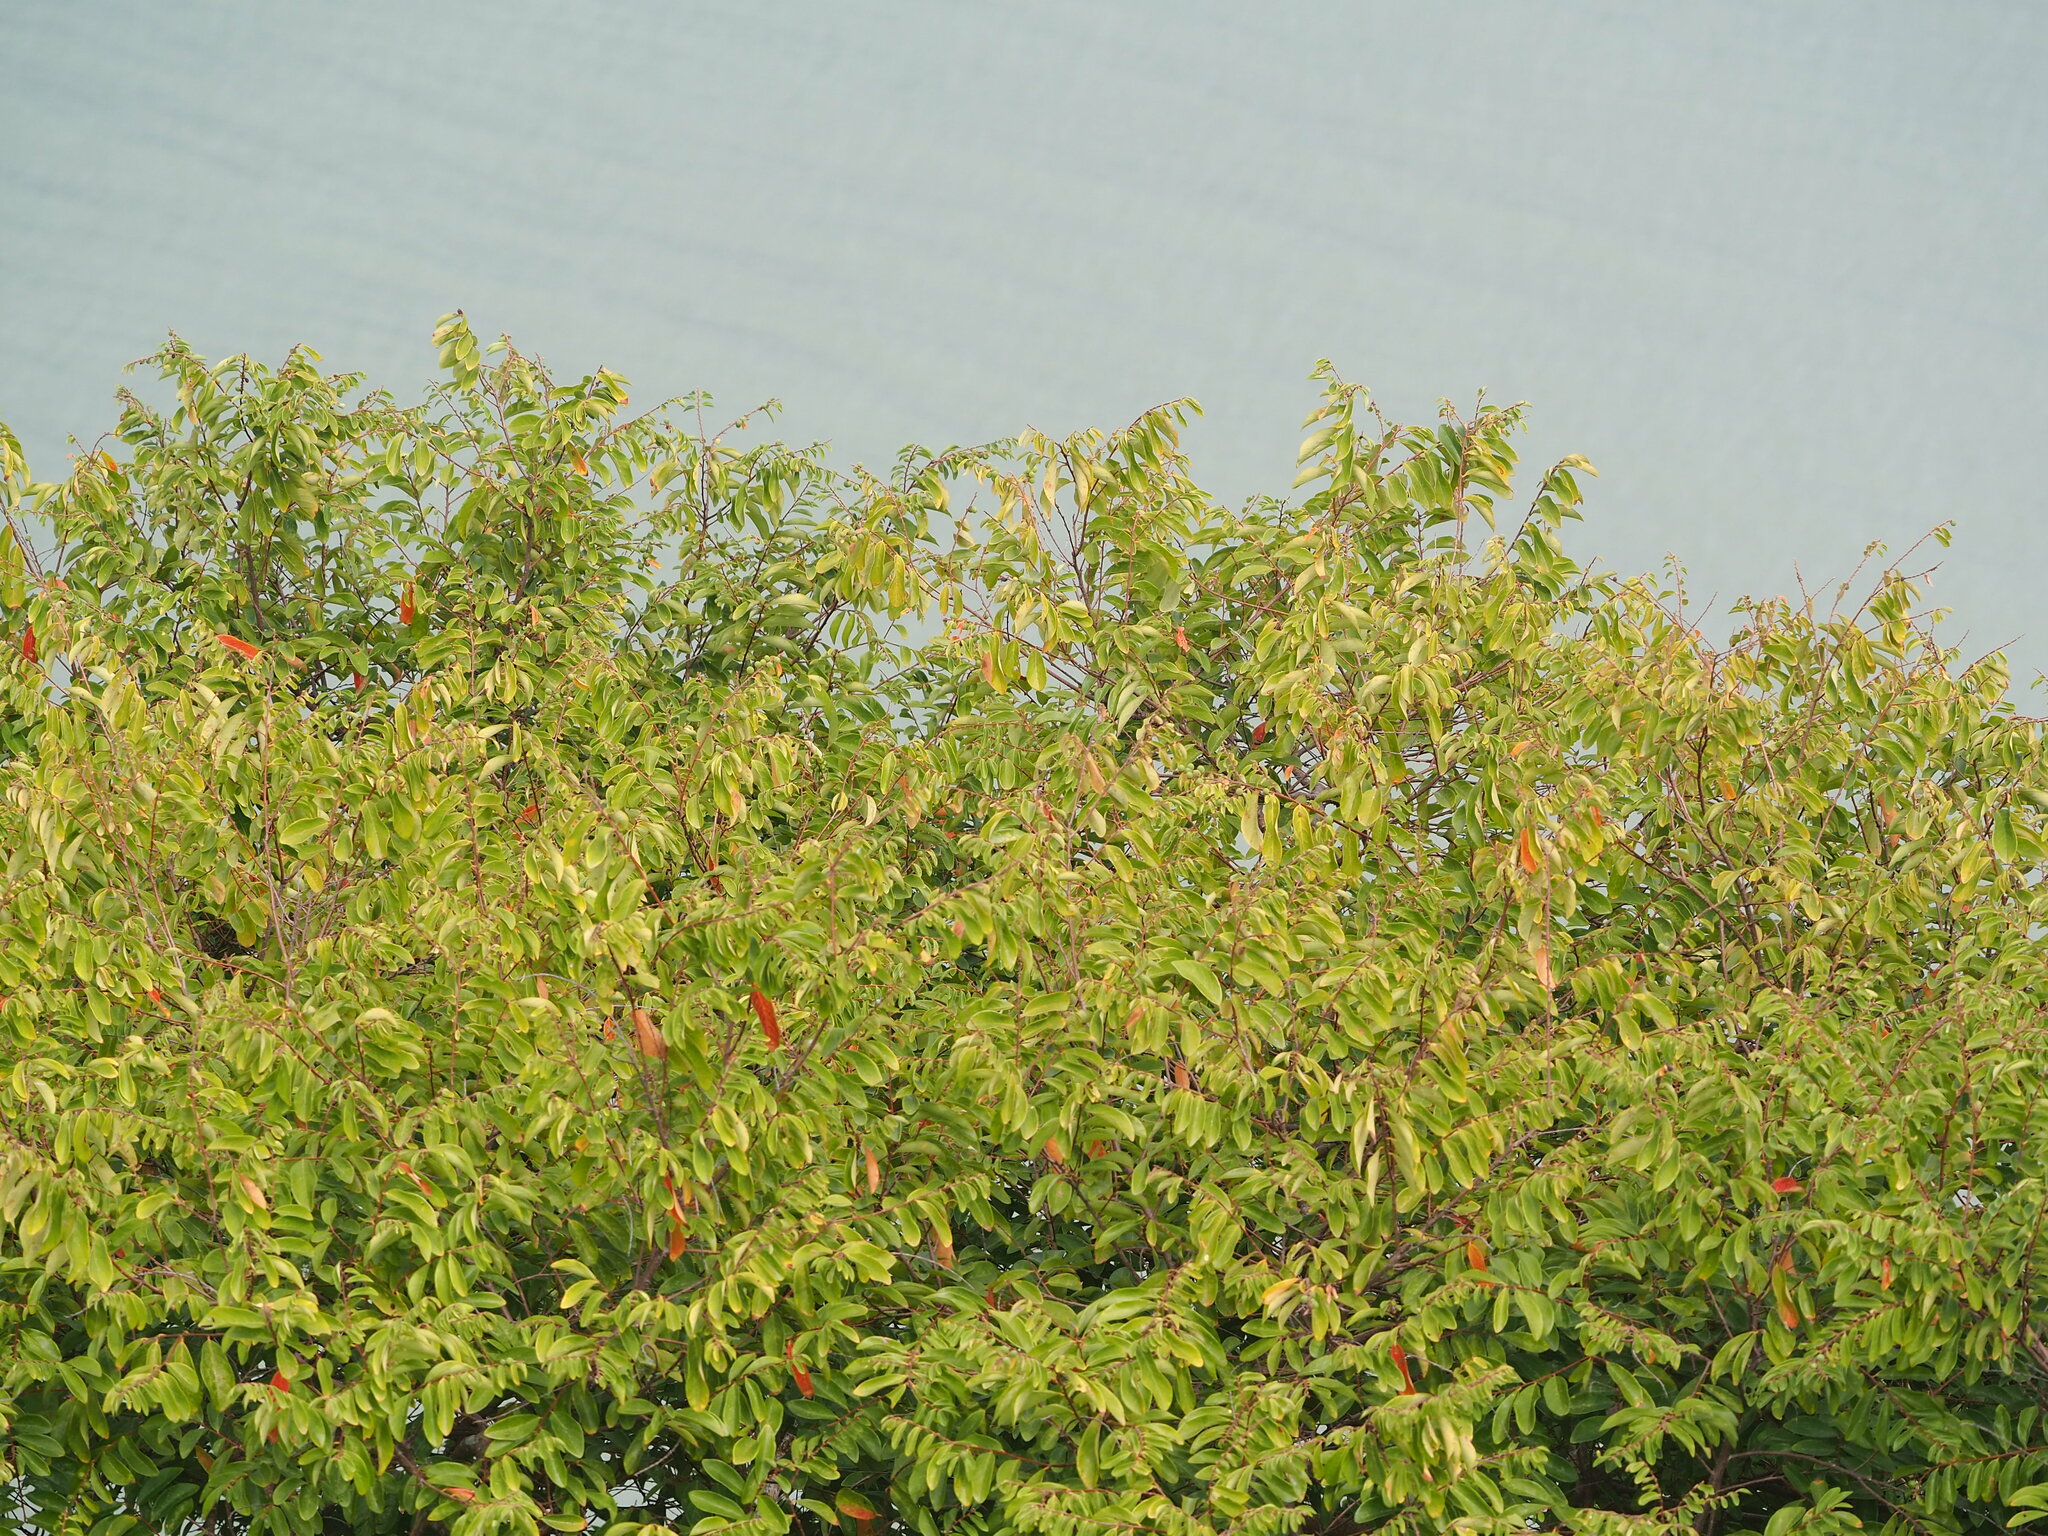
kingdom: Plantae
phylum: Tracheophyta
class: Magnoliopsida
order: Malpighiales
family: Phyllanthaceae
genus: Bridelia
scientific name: Bridelia tomentosa
